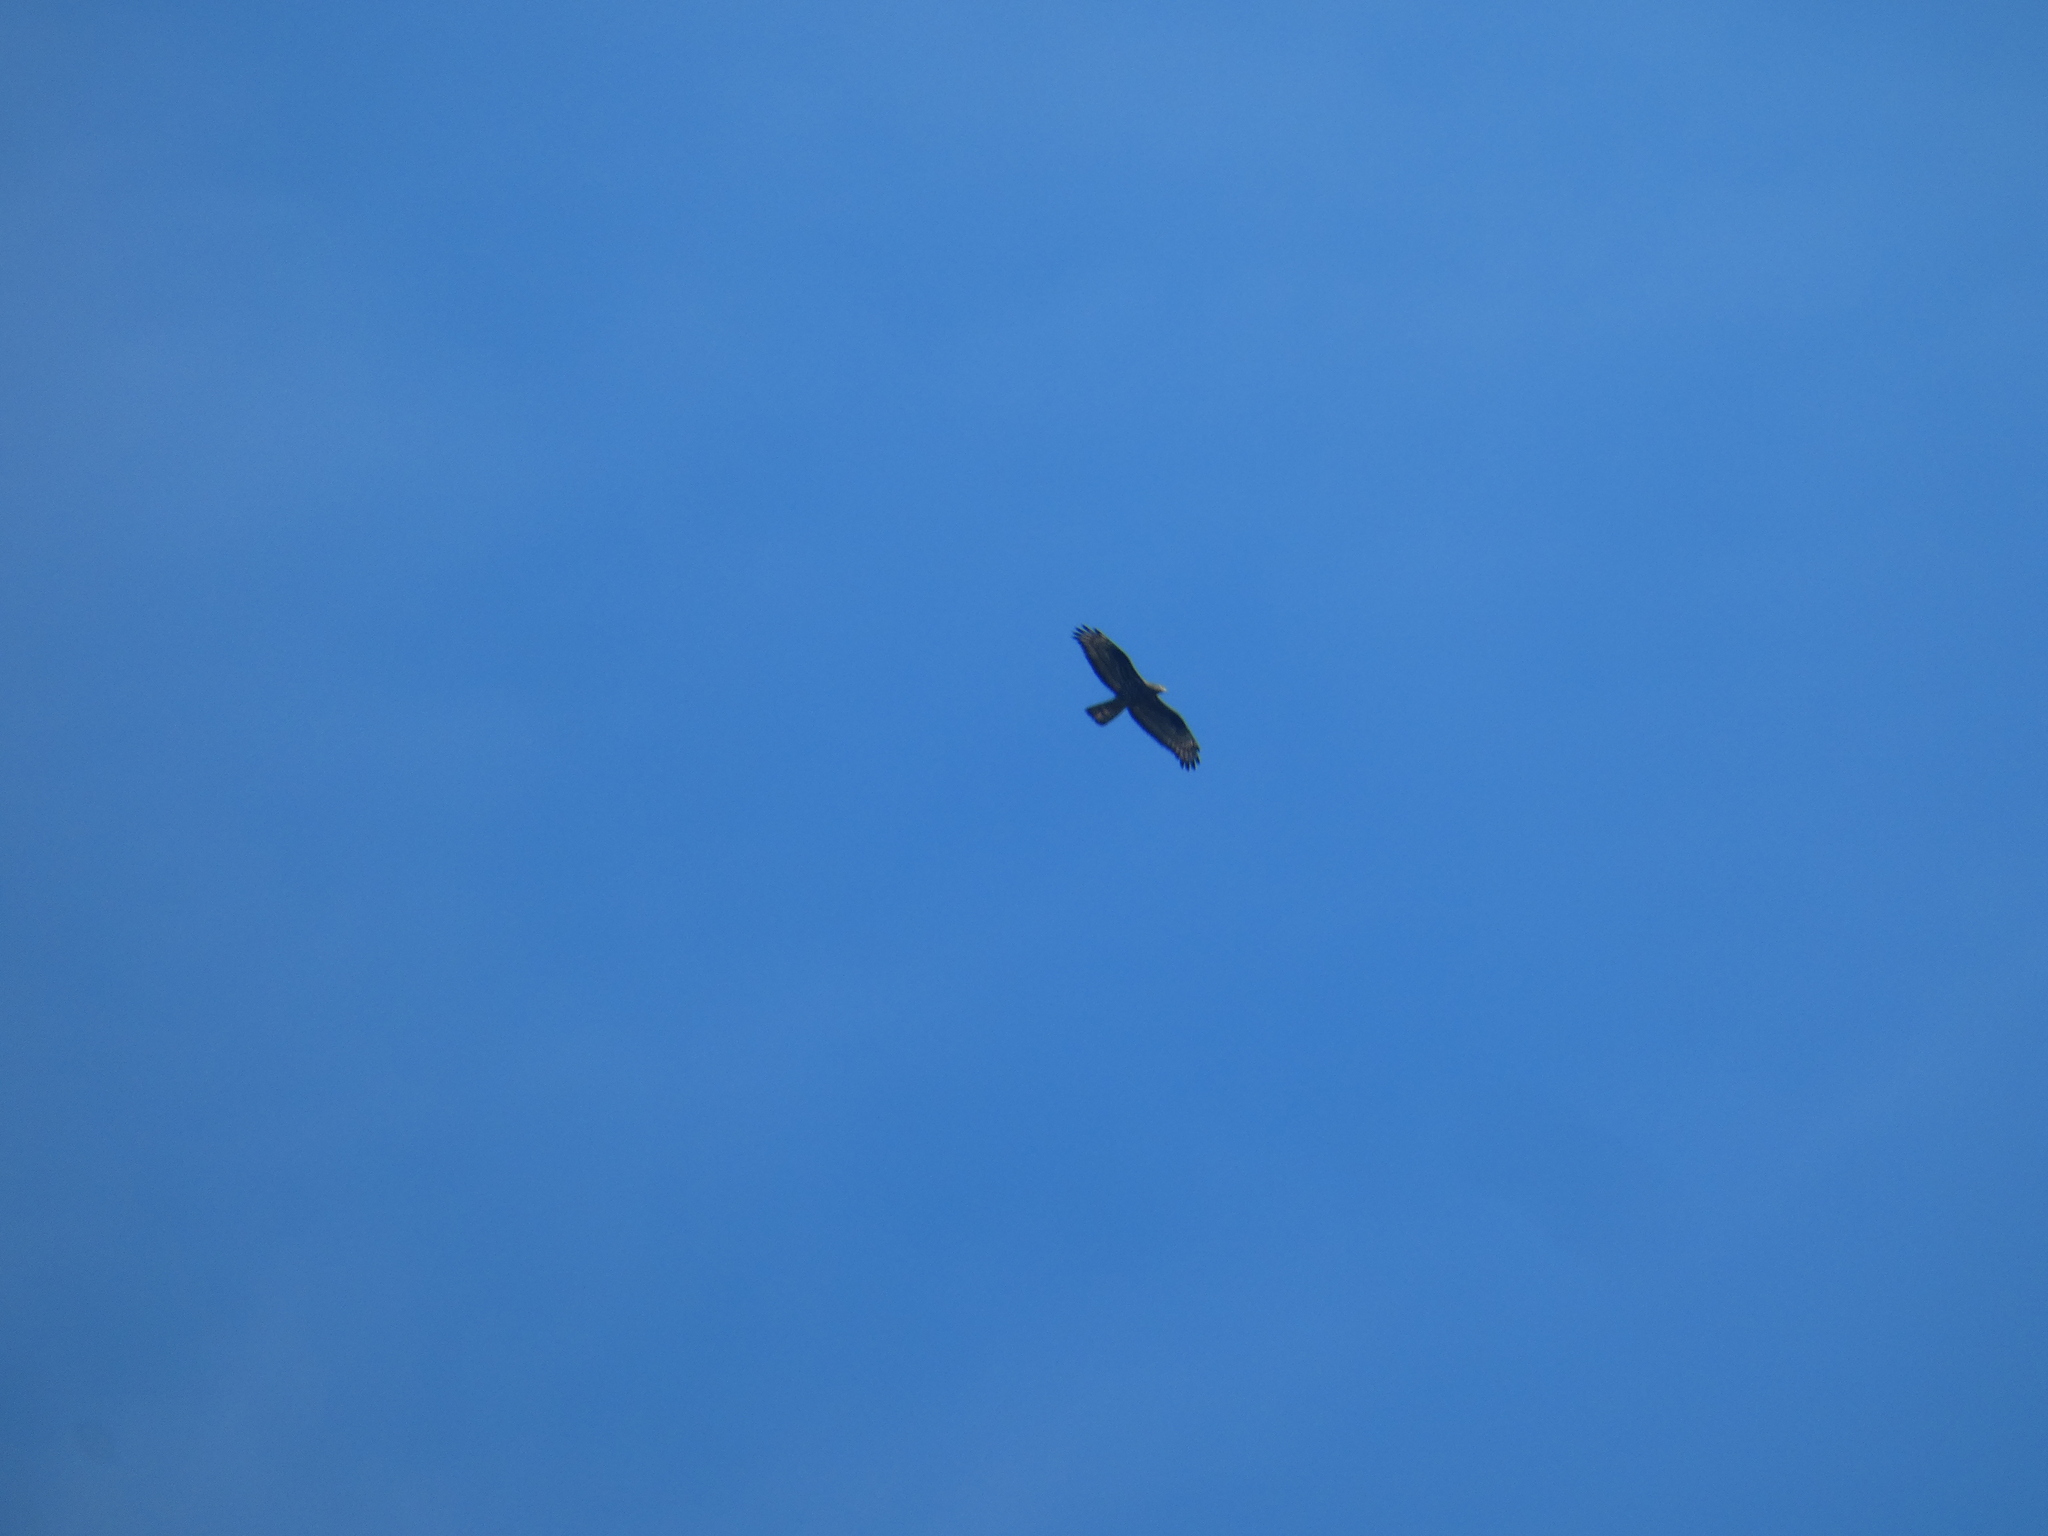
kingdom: Animalia
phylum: Chordata
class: Aves
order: Accipitriformes
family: Accipitridae
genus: Pernis
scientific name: Pernis apivorus
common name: European honey buzzard
